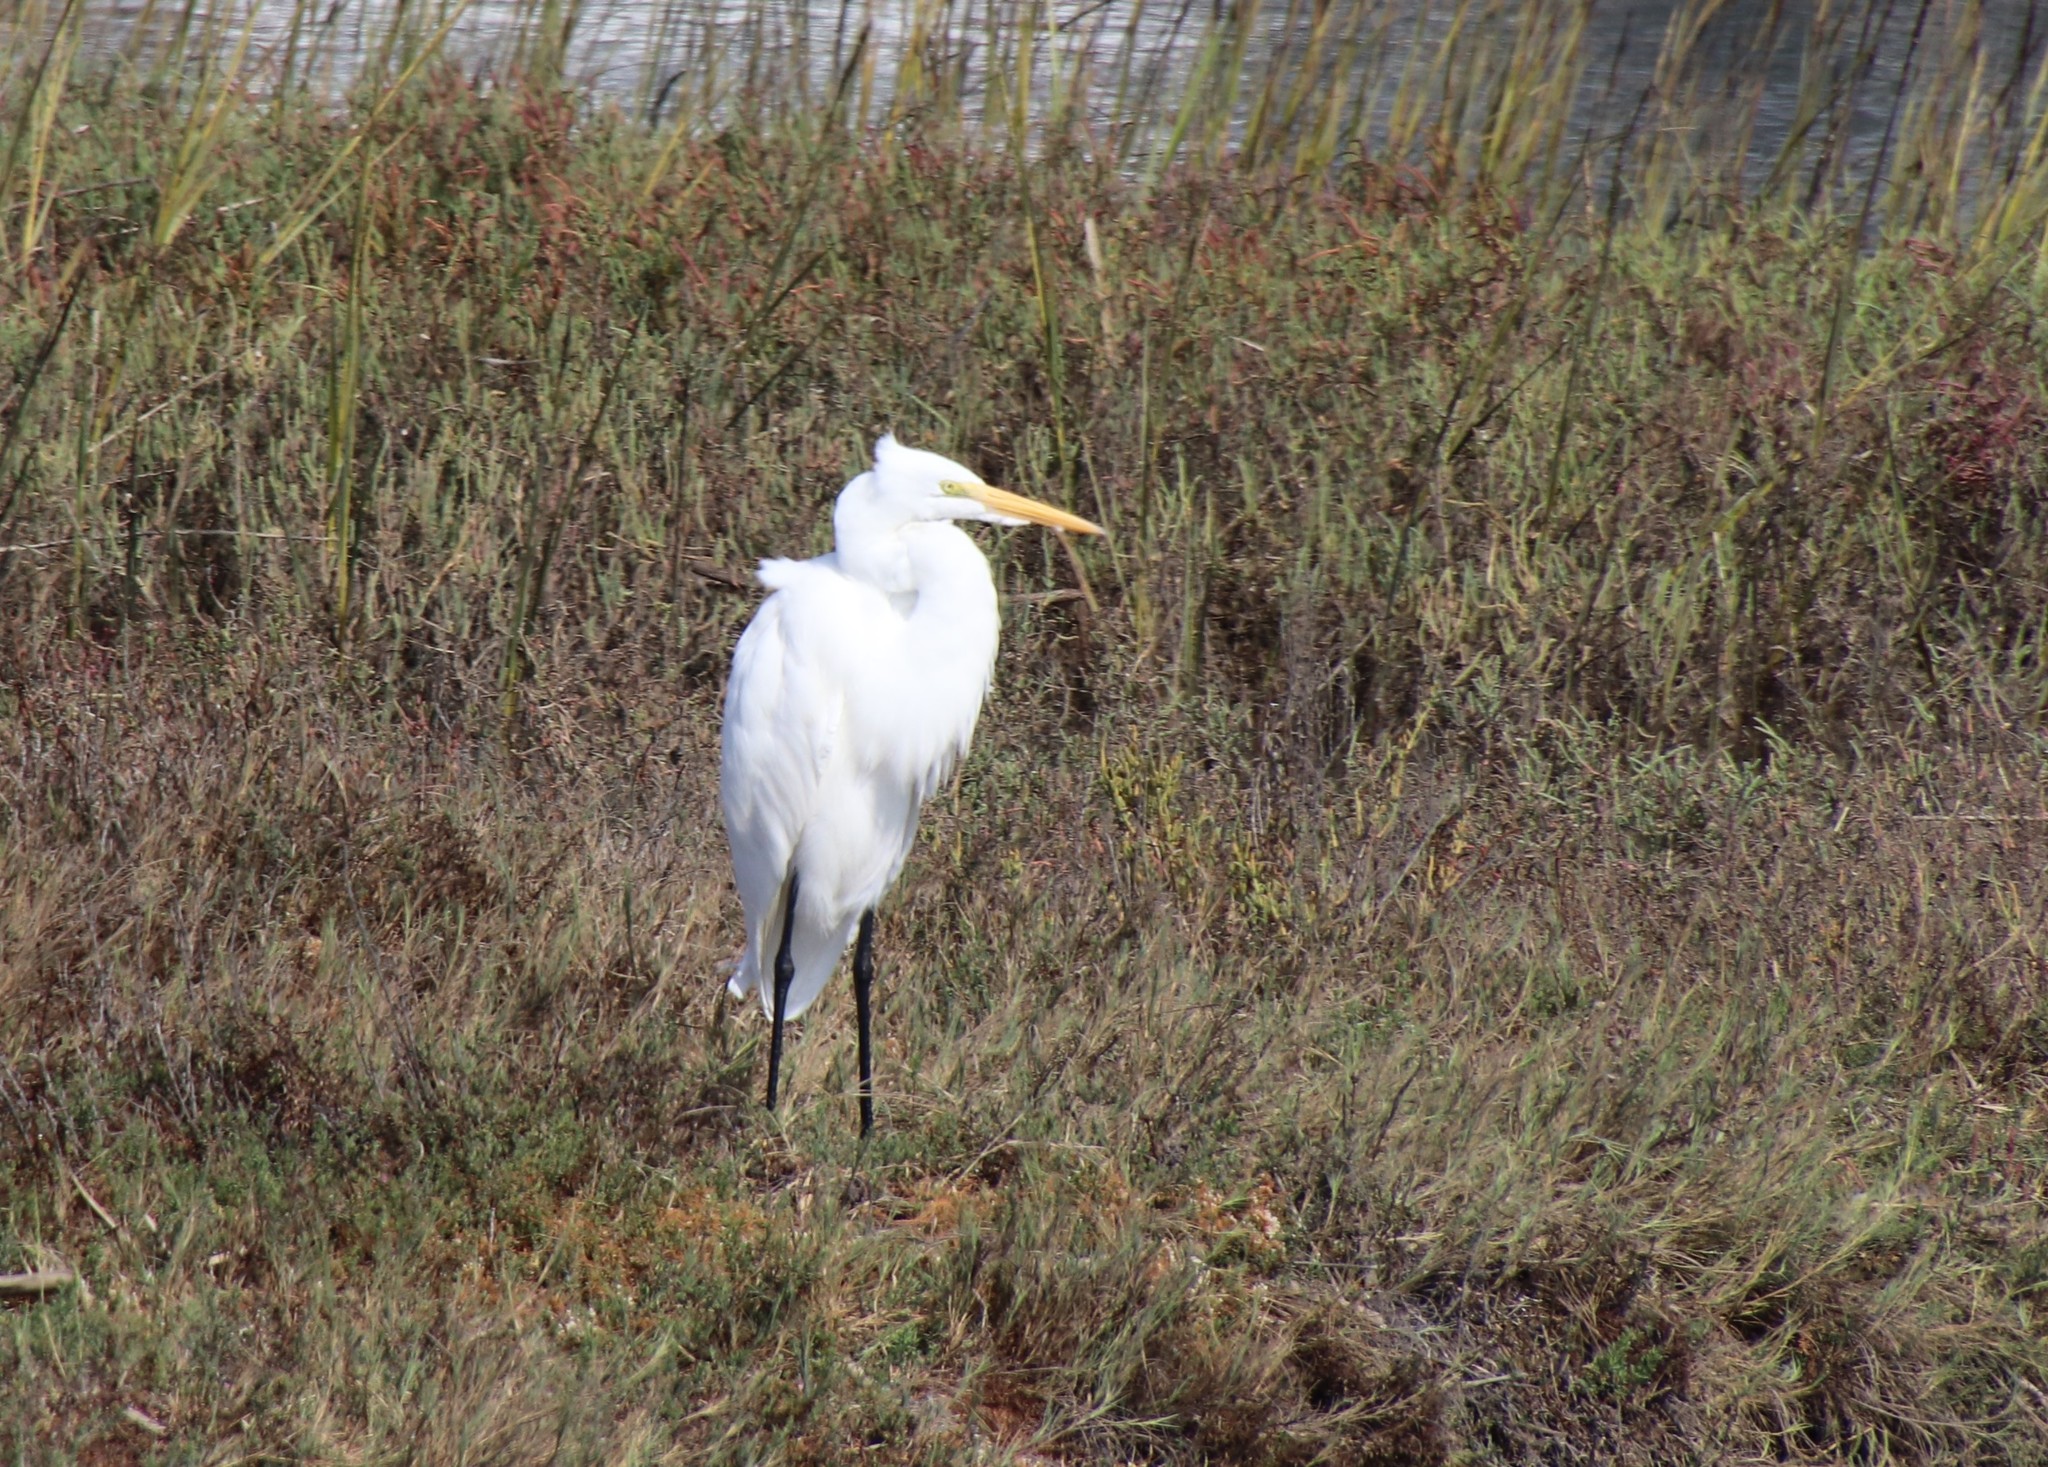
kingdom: Animalia
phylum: Chordata
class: Aves
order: Pelecaniformes
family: Ardeidae
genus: Ardea
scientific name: Ardea alba
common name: Great egret
